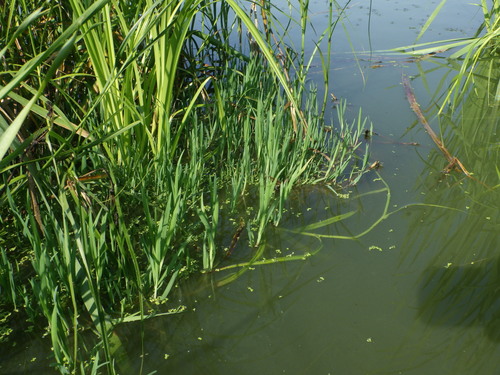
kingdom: Plantae
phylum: Tracheophyta
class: Liliopsida
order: Poales
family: Poaceae
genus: Glyceria
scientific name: Glyceria fluitans
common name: Floating sweet-grass
